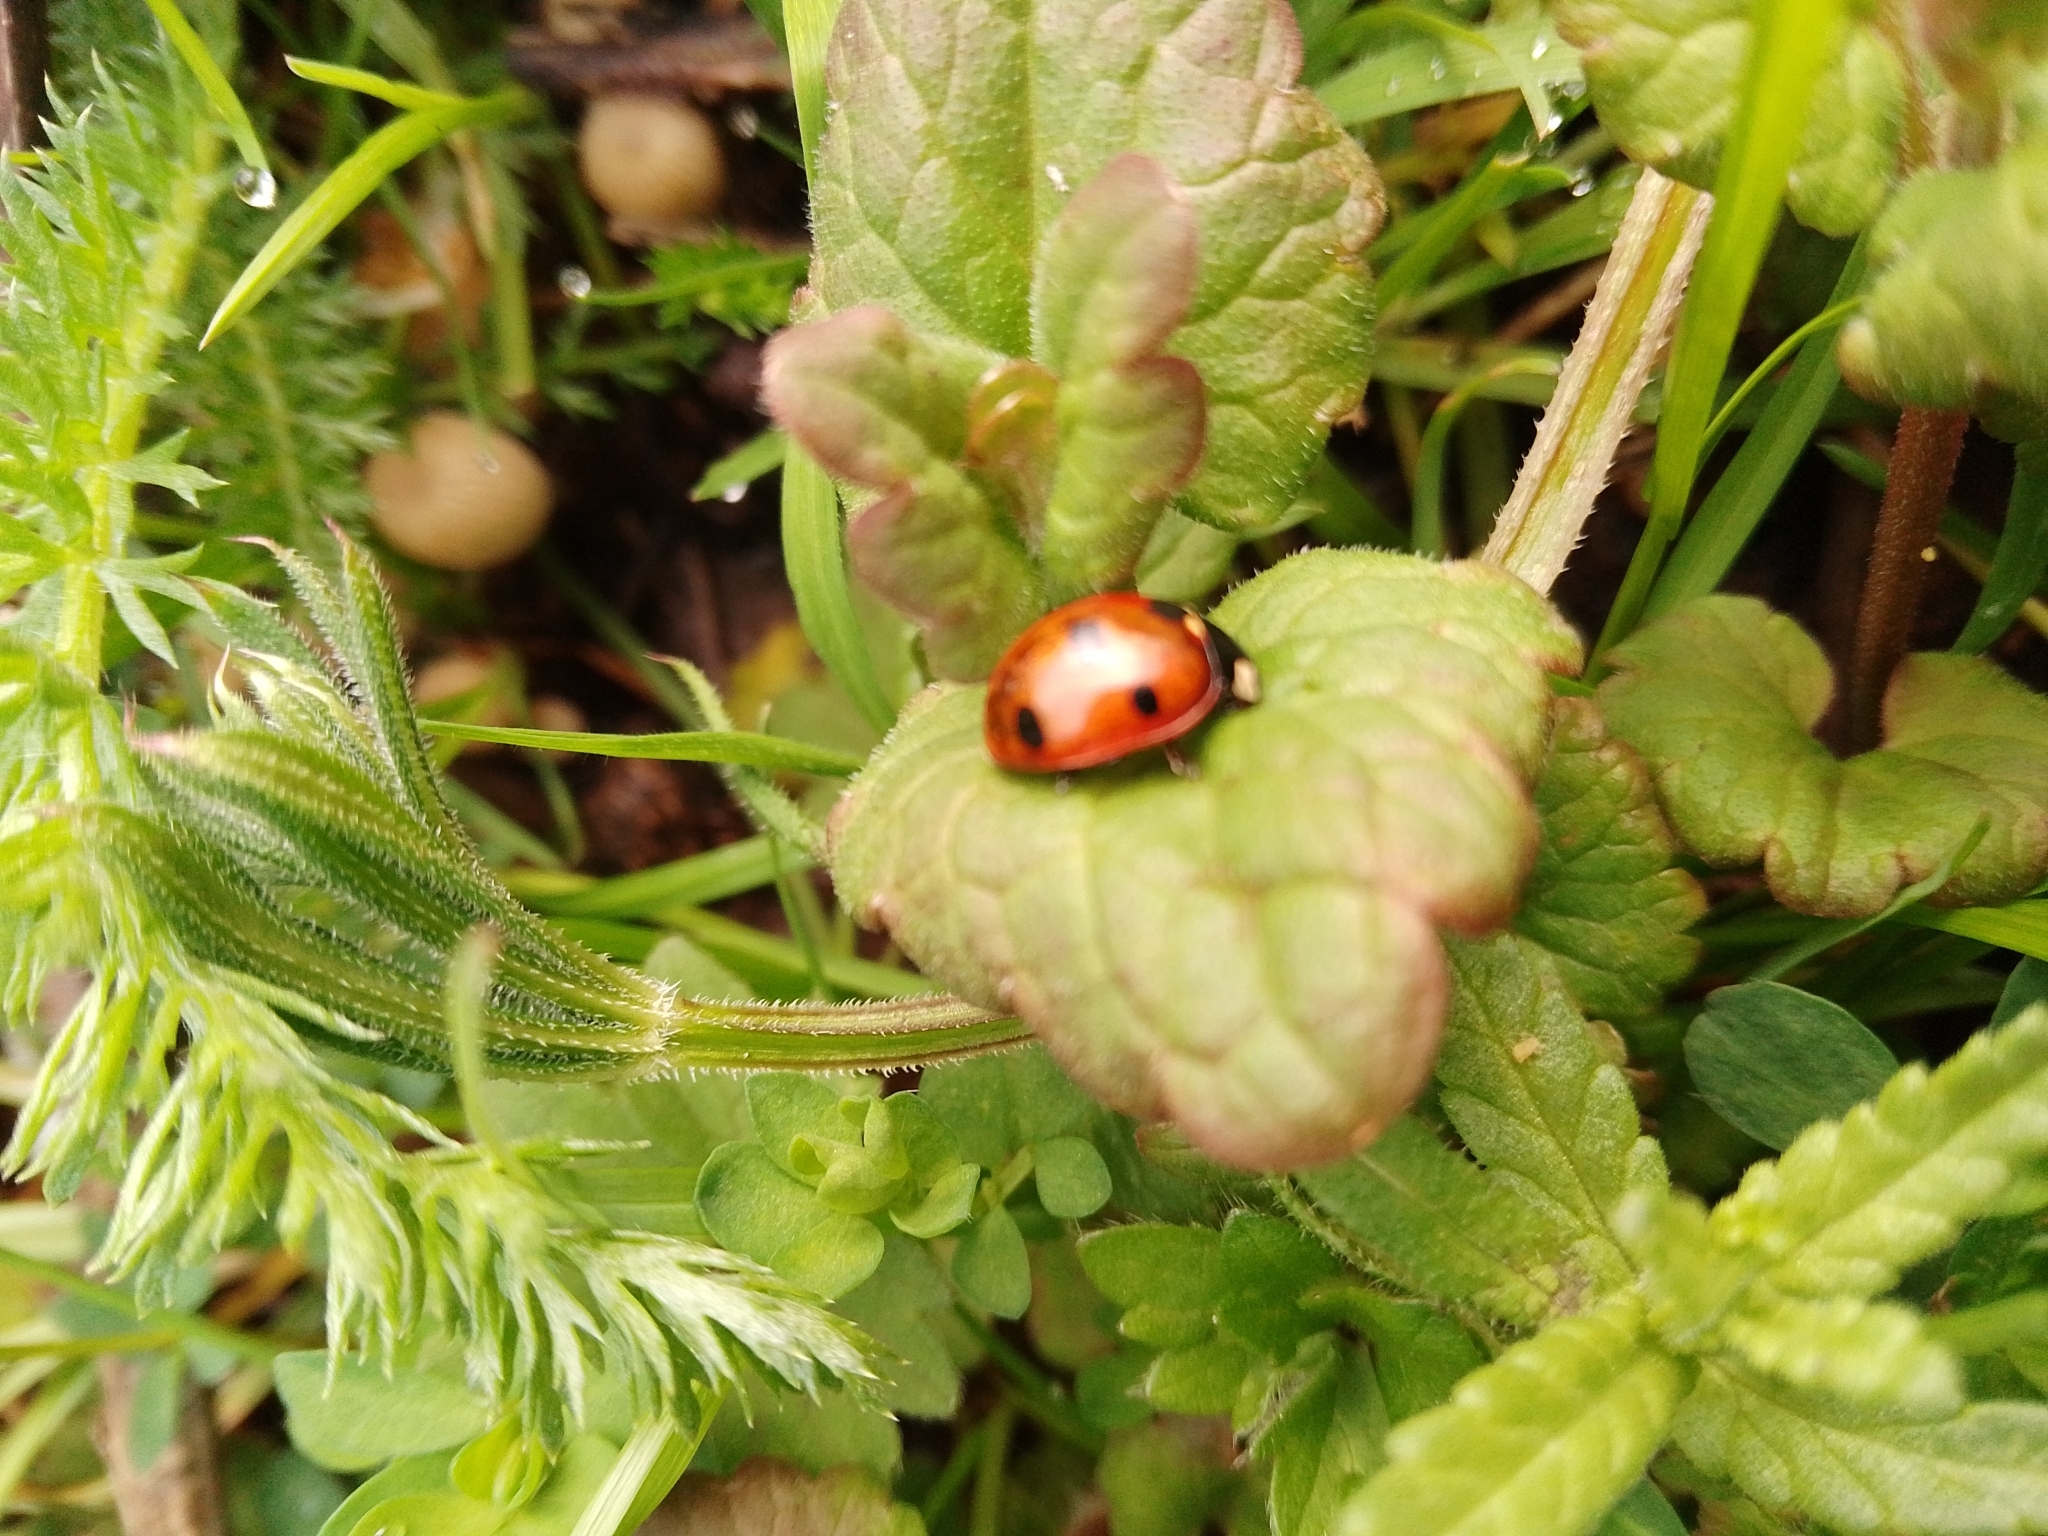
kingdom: Animalia
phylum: Arthropoda
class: Insecta
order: Coleoptera
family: Coccinellidae
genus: Coccinella
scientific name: Coccinella septempunctata
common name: Sevenspotted lady beetle
